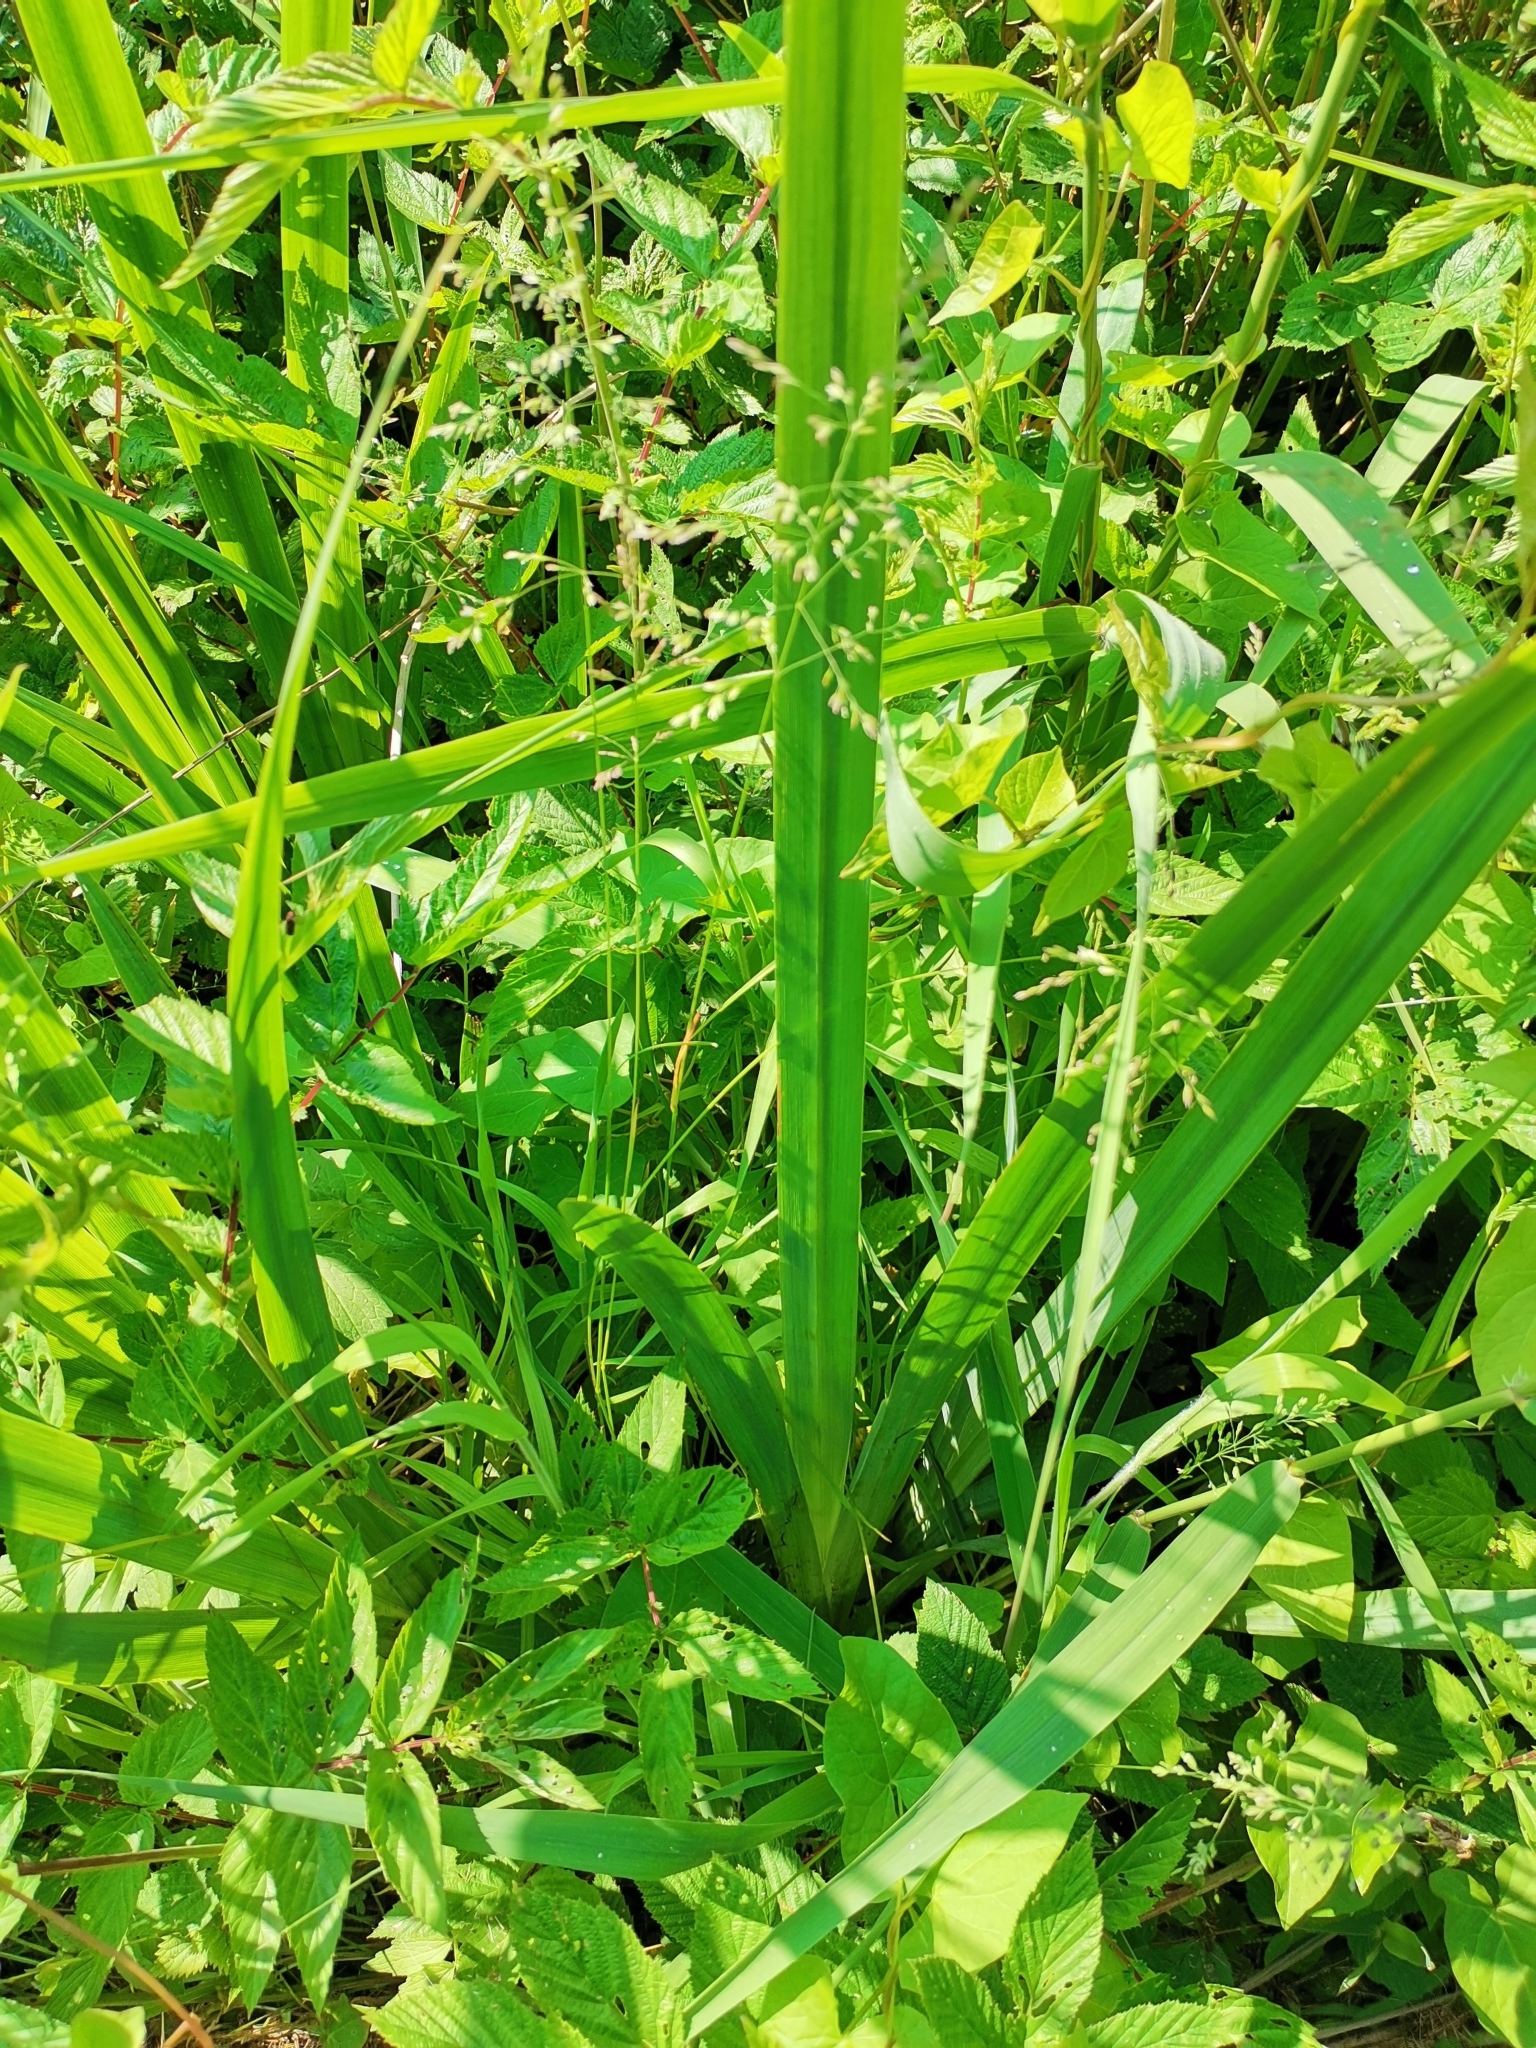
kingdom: Plantae
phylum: Tracheophyta
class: Liliopsida
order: Asparagales
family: Iridaceae
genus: Iris
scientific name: Iris pseudacorus
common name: Yellow flag
